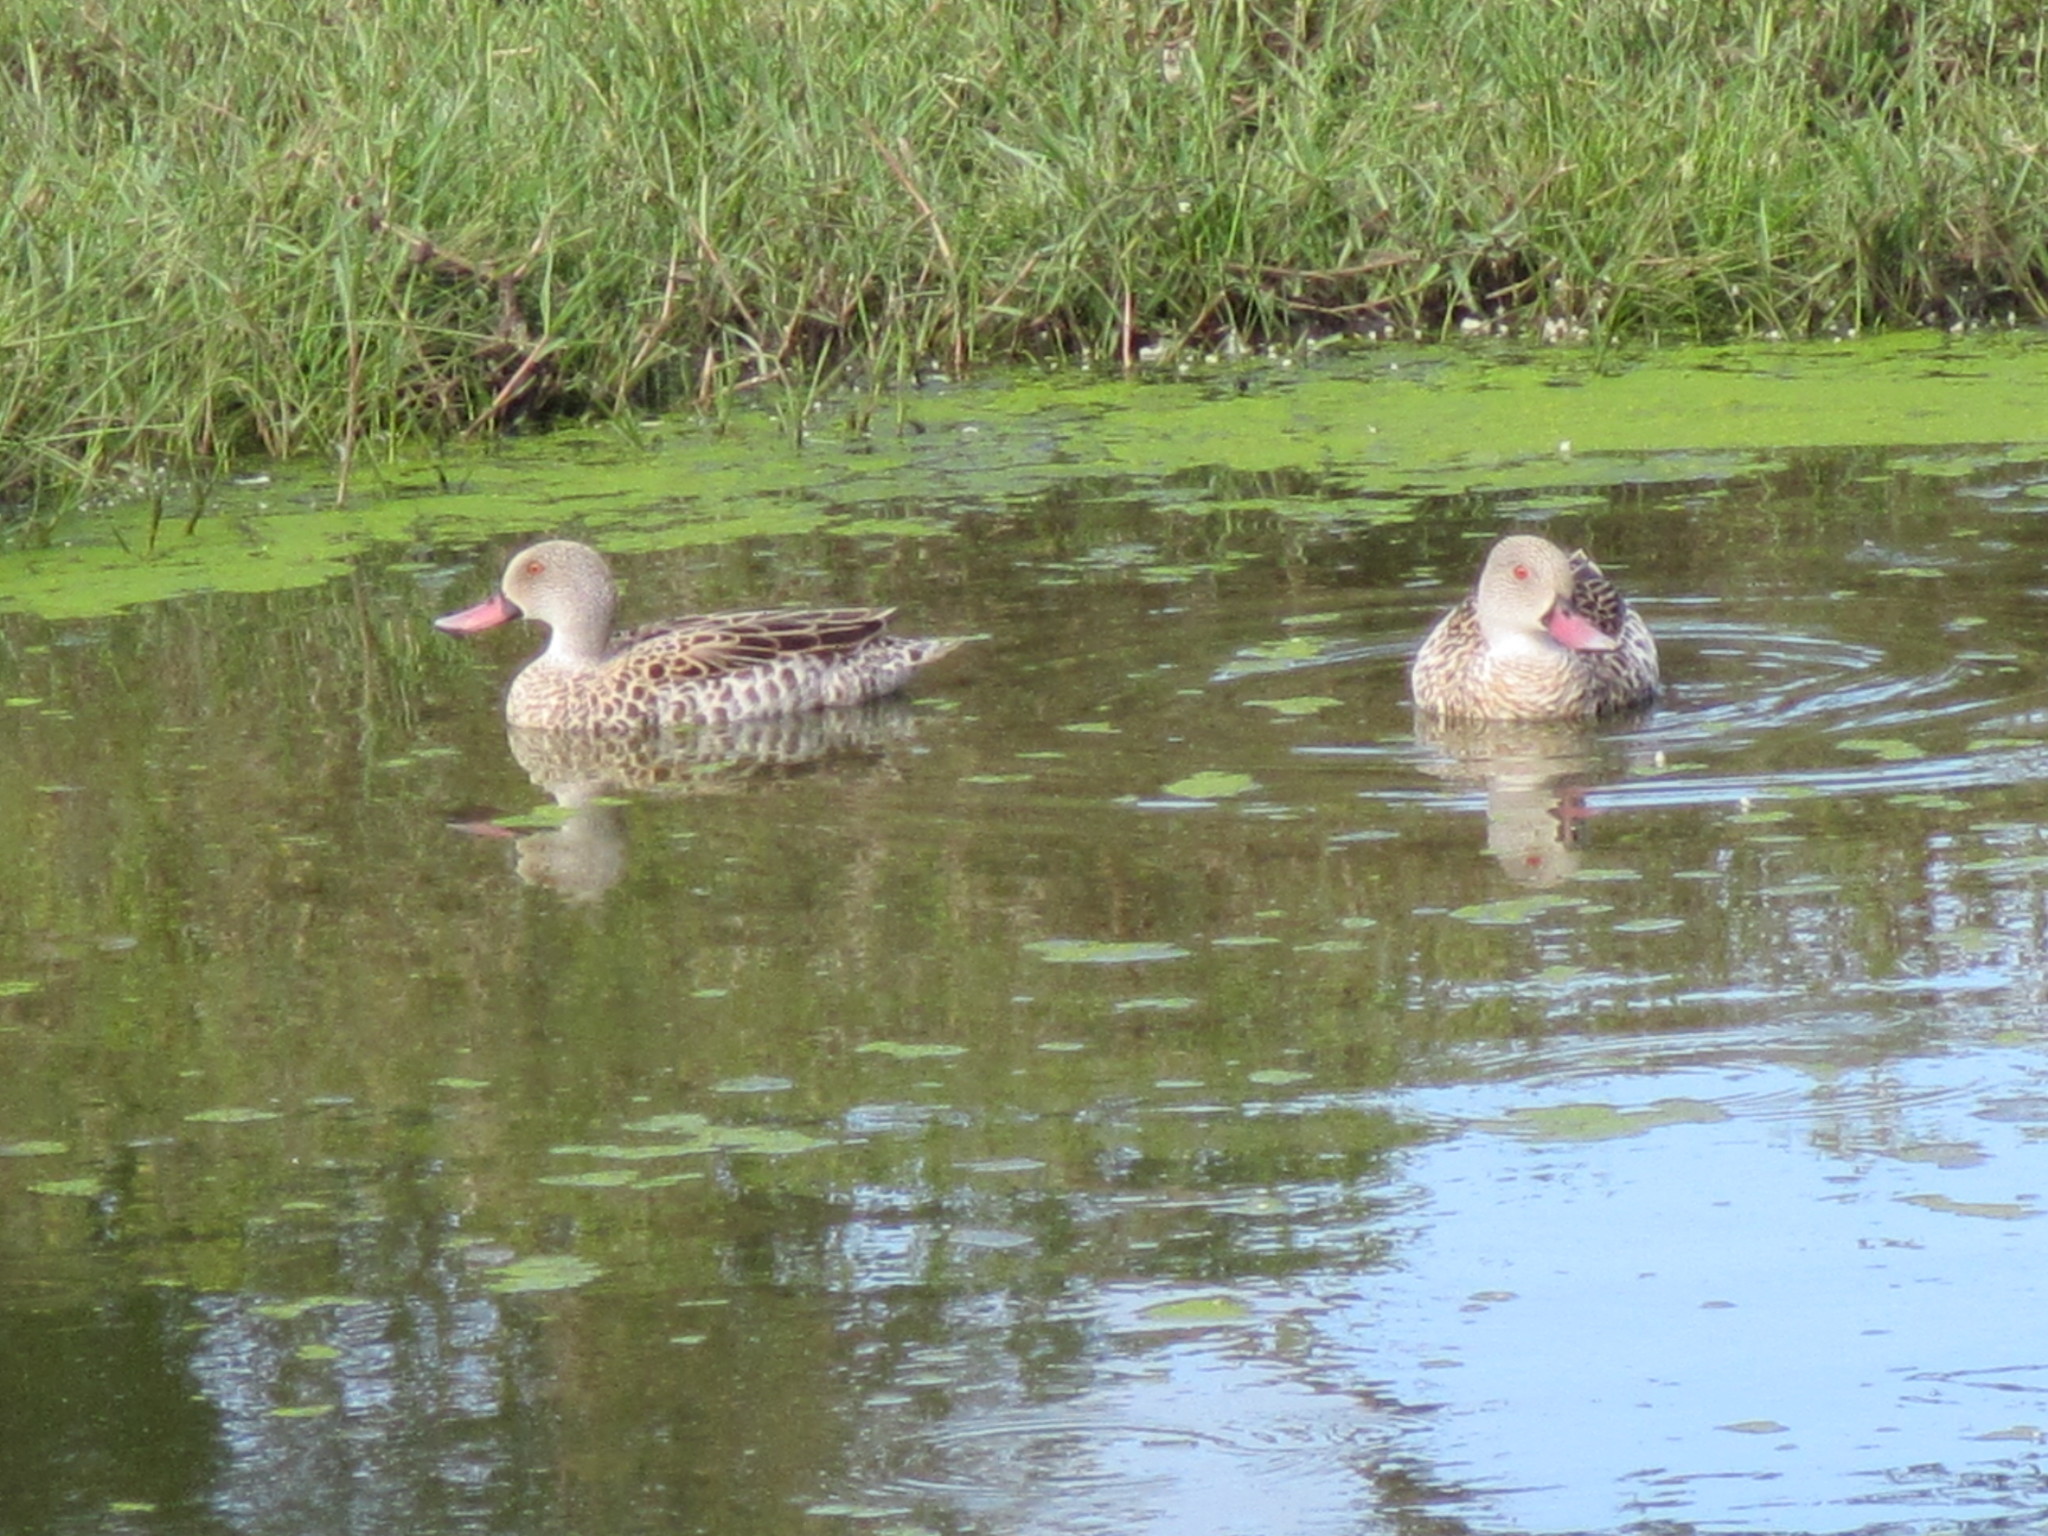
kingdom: Animalia
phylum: Chordata
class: Aves
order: Anseriformes
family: Anatidae
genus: Anas
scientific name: Anas capensis
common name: Cape teal
